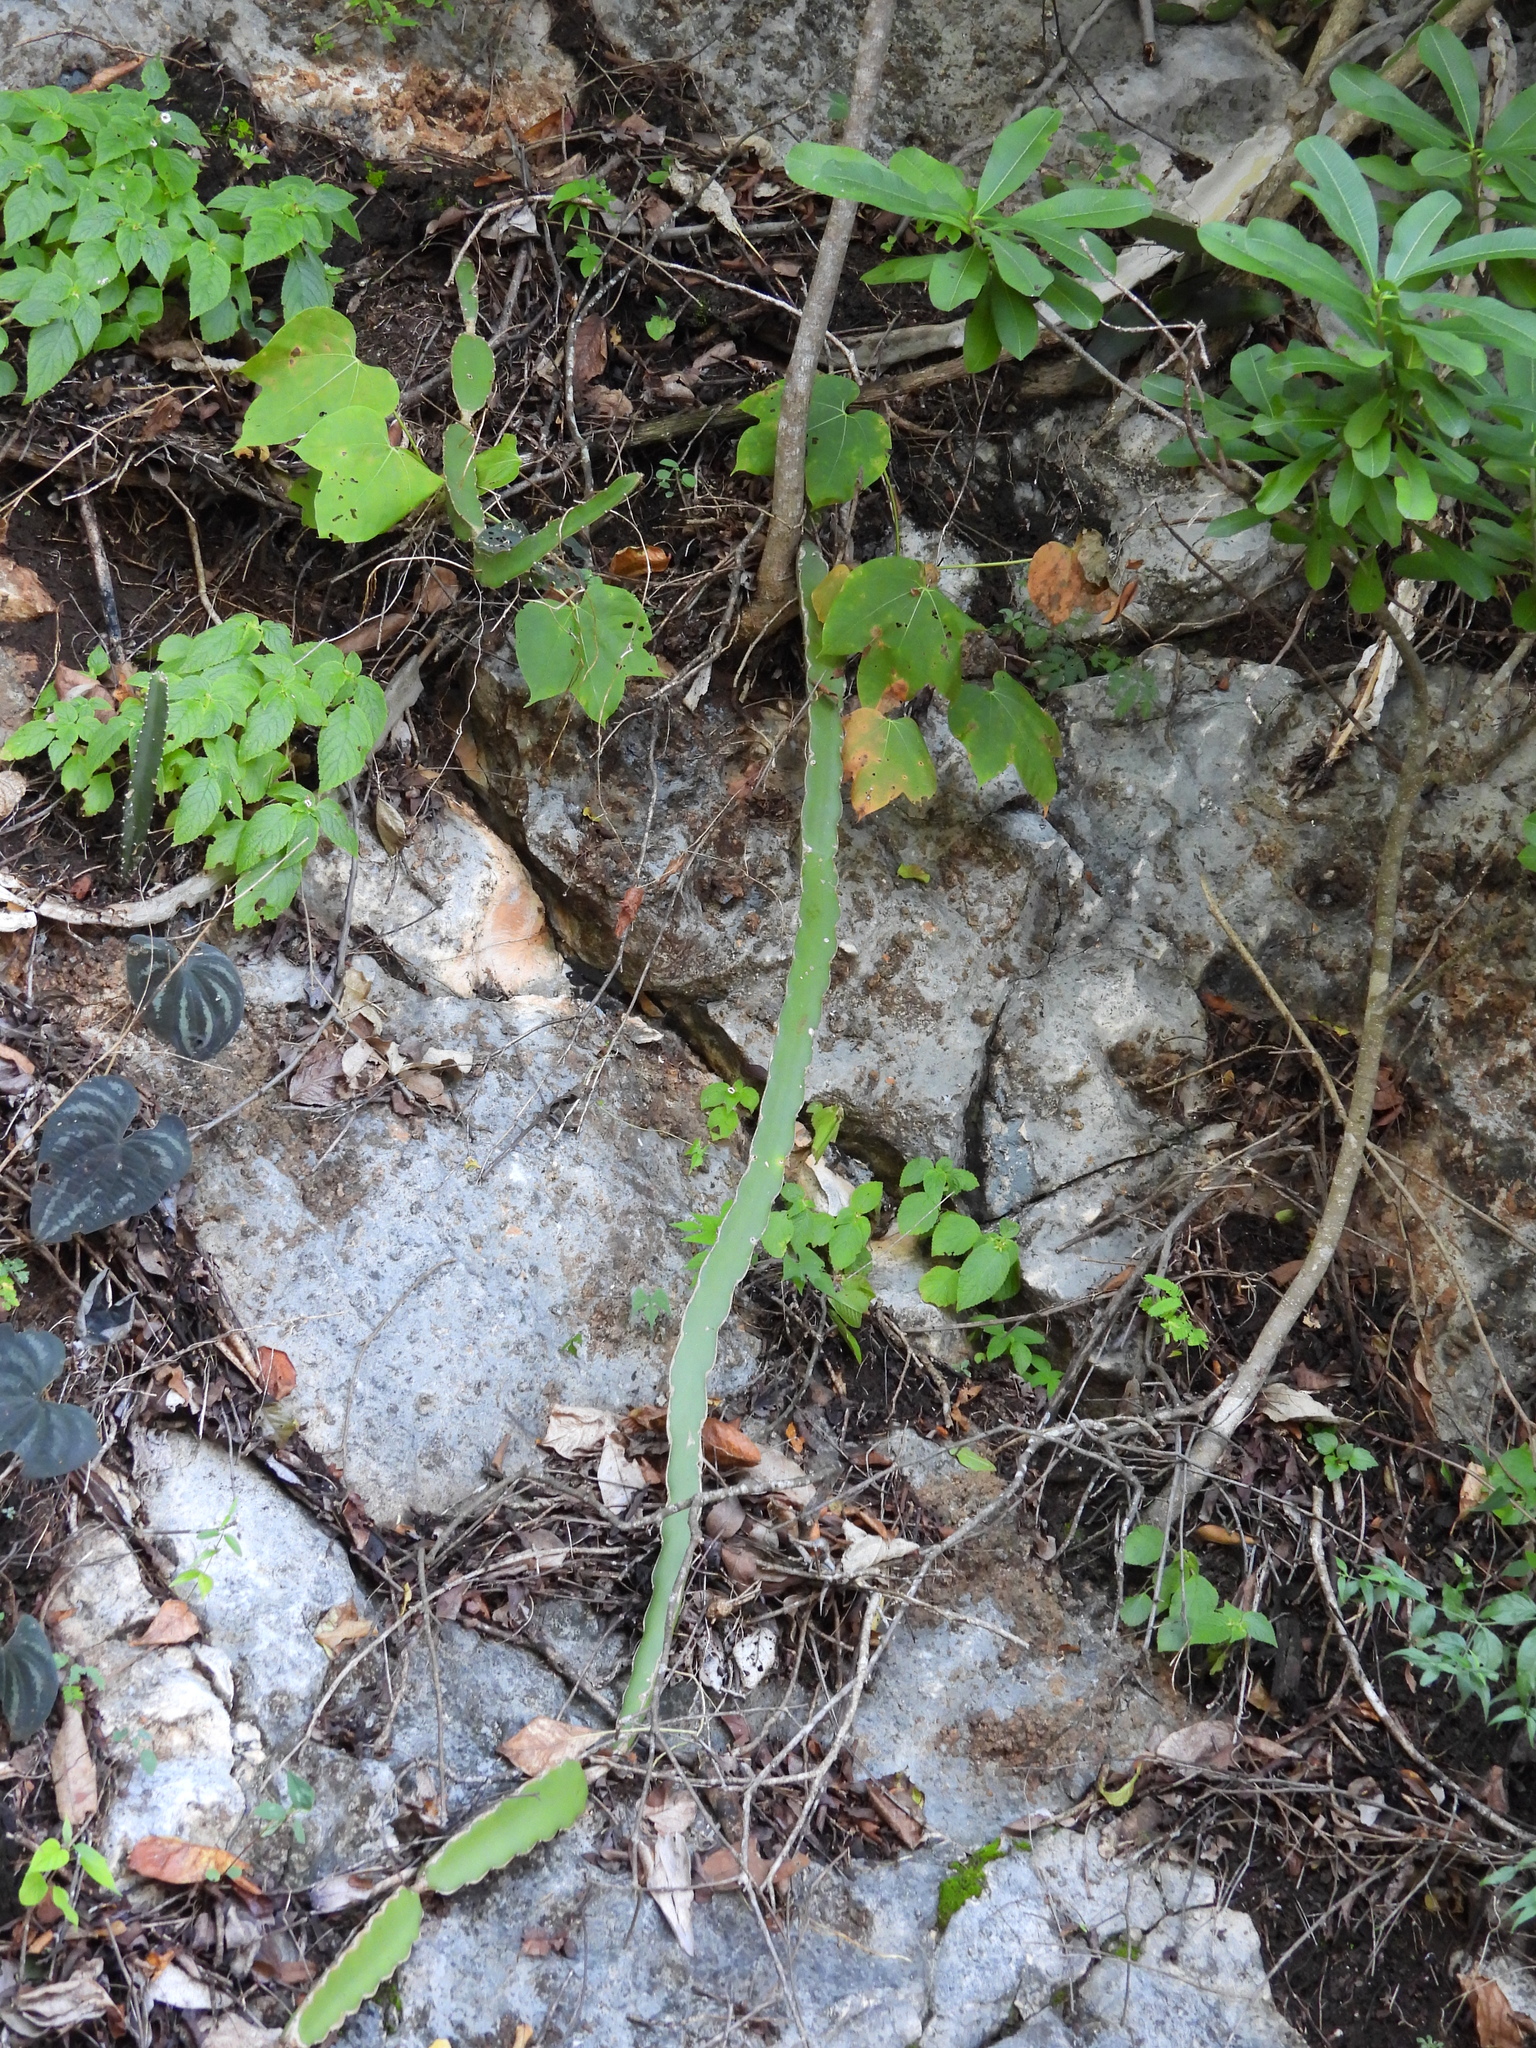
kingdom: Plantae
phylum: Tracheophyta
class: Magnoliopsida
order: Caryophyllales
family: Cactaceae
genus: Selenicereus
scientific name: Selenicereus undatus
